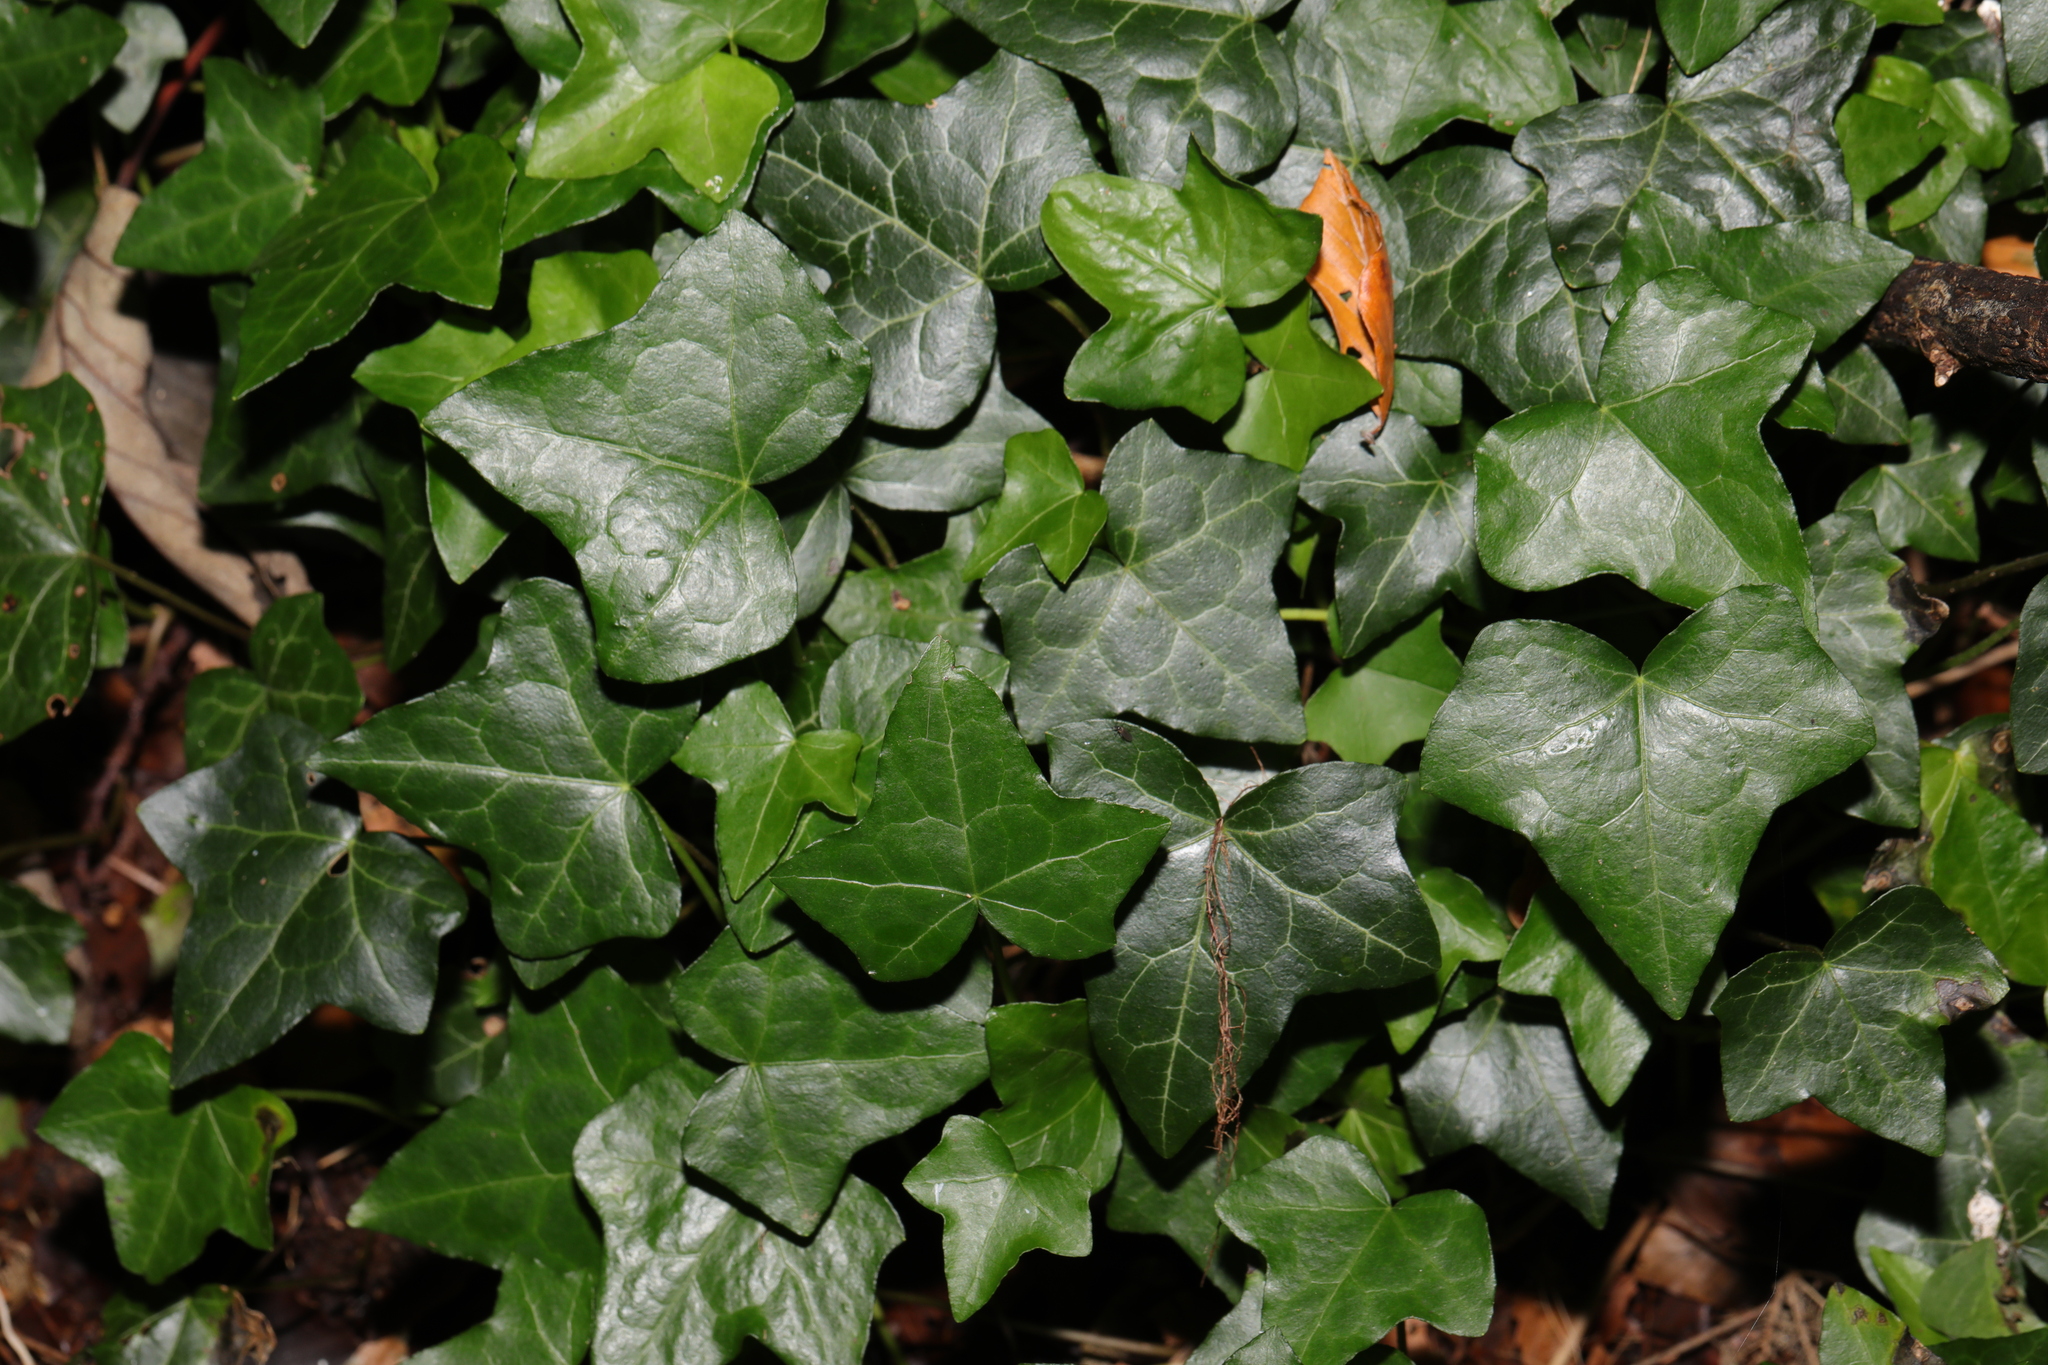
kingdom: Plantae
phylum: Tracheophyta
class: Magnoliopsida
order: Apiales
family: Araliaceae
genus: Hedera
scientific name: Hedera helix
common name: Ivy
